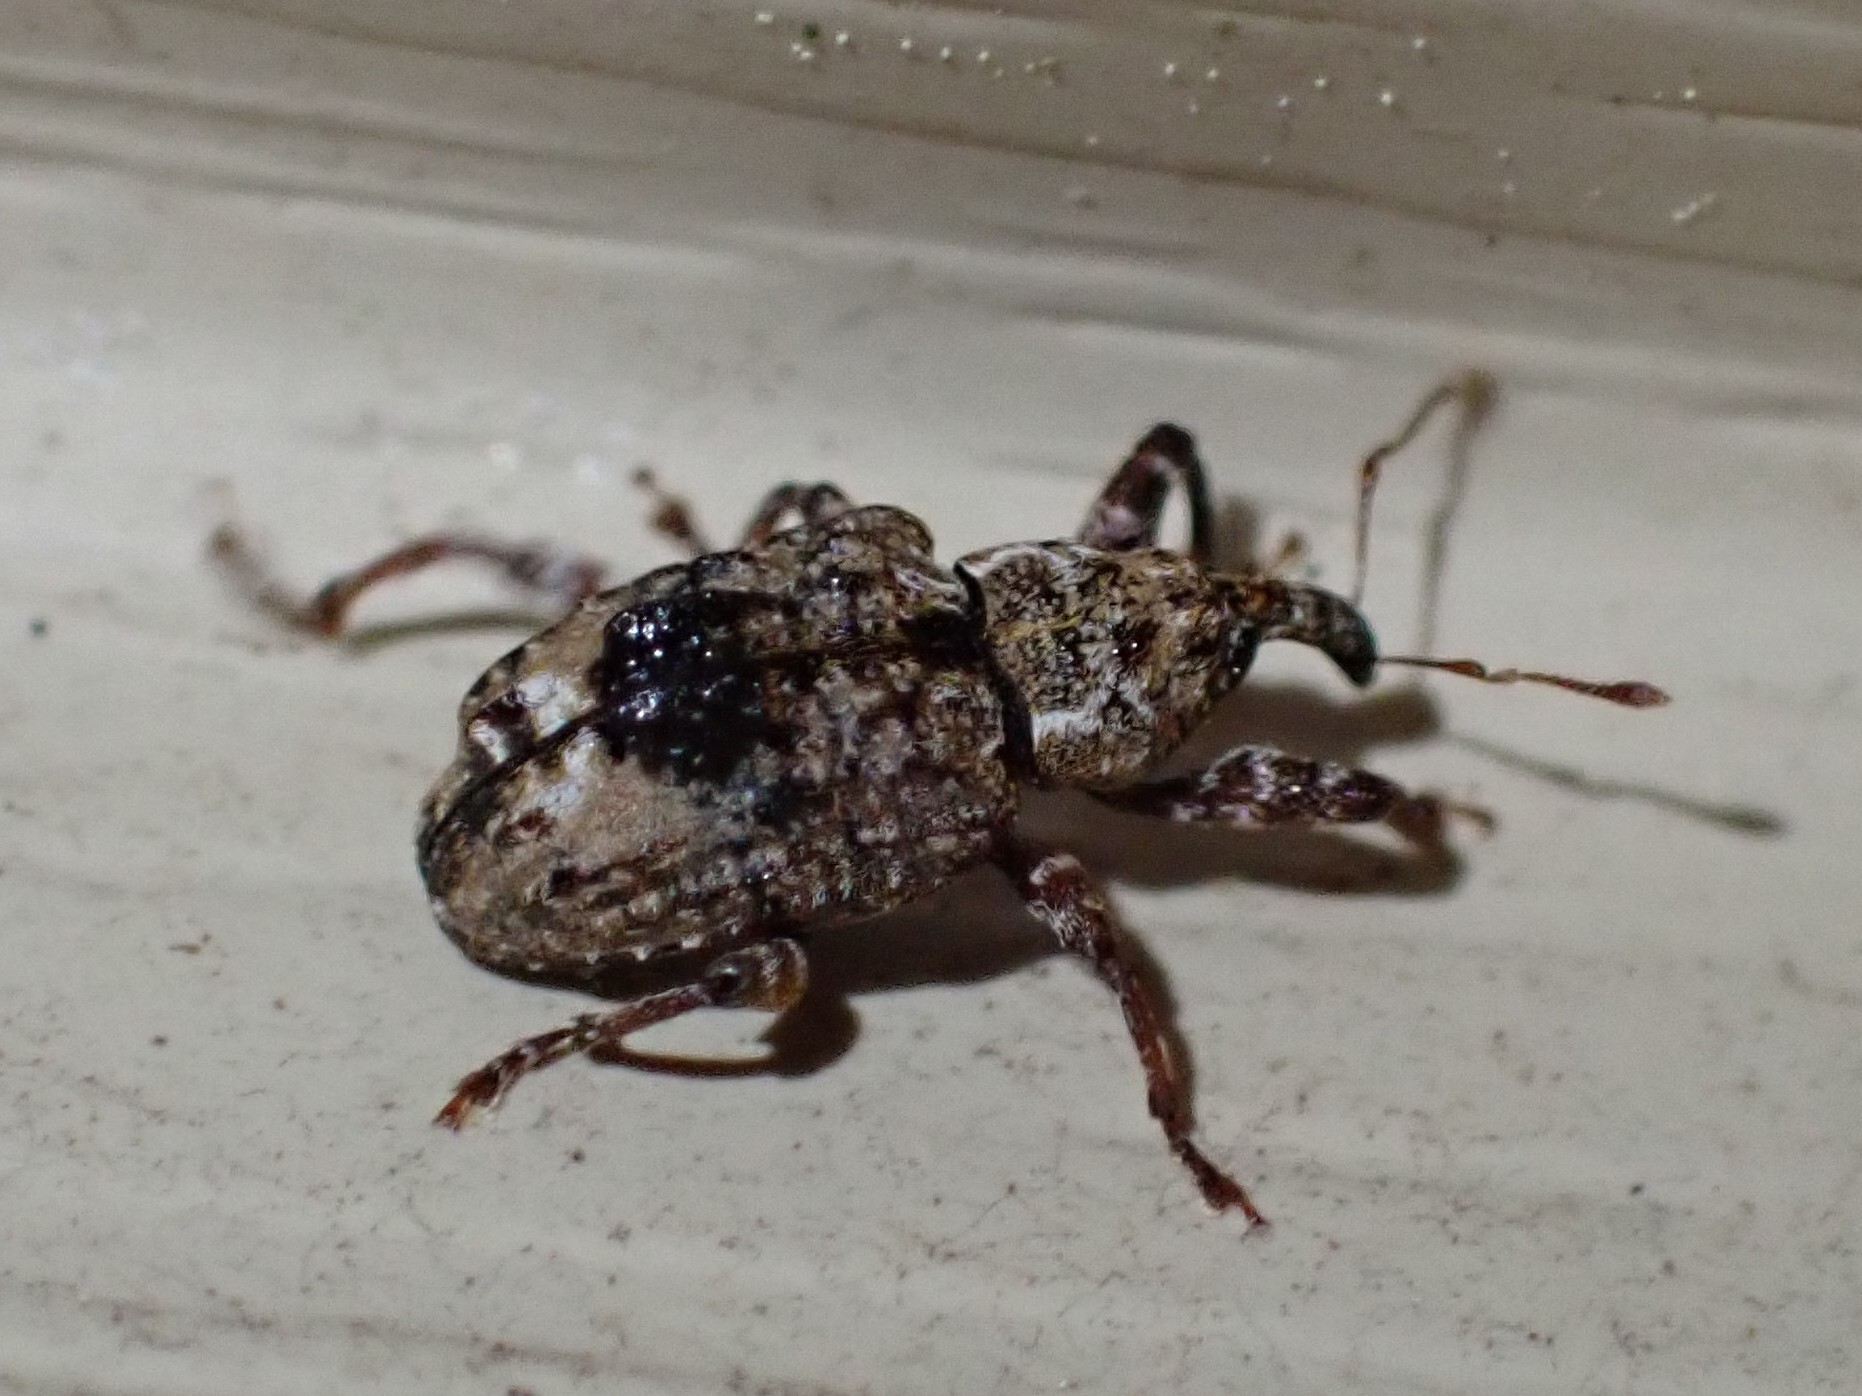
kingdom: Animalia
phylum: Arthropoda
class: Insecta
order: Coleoptera
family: Curculionidae
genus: Conotrachelus
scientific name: Conotrachelus nenuphar
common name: Plum curculio
